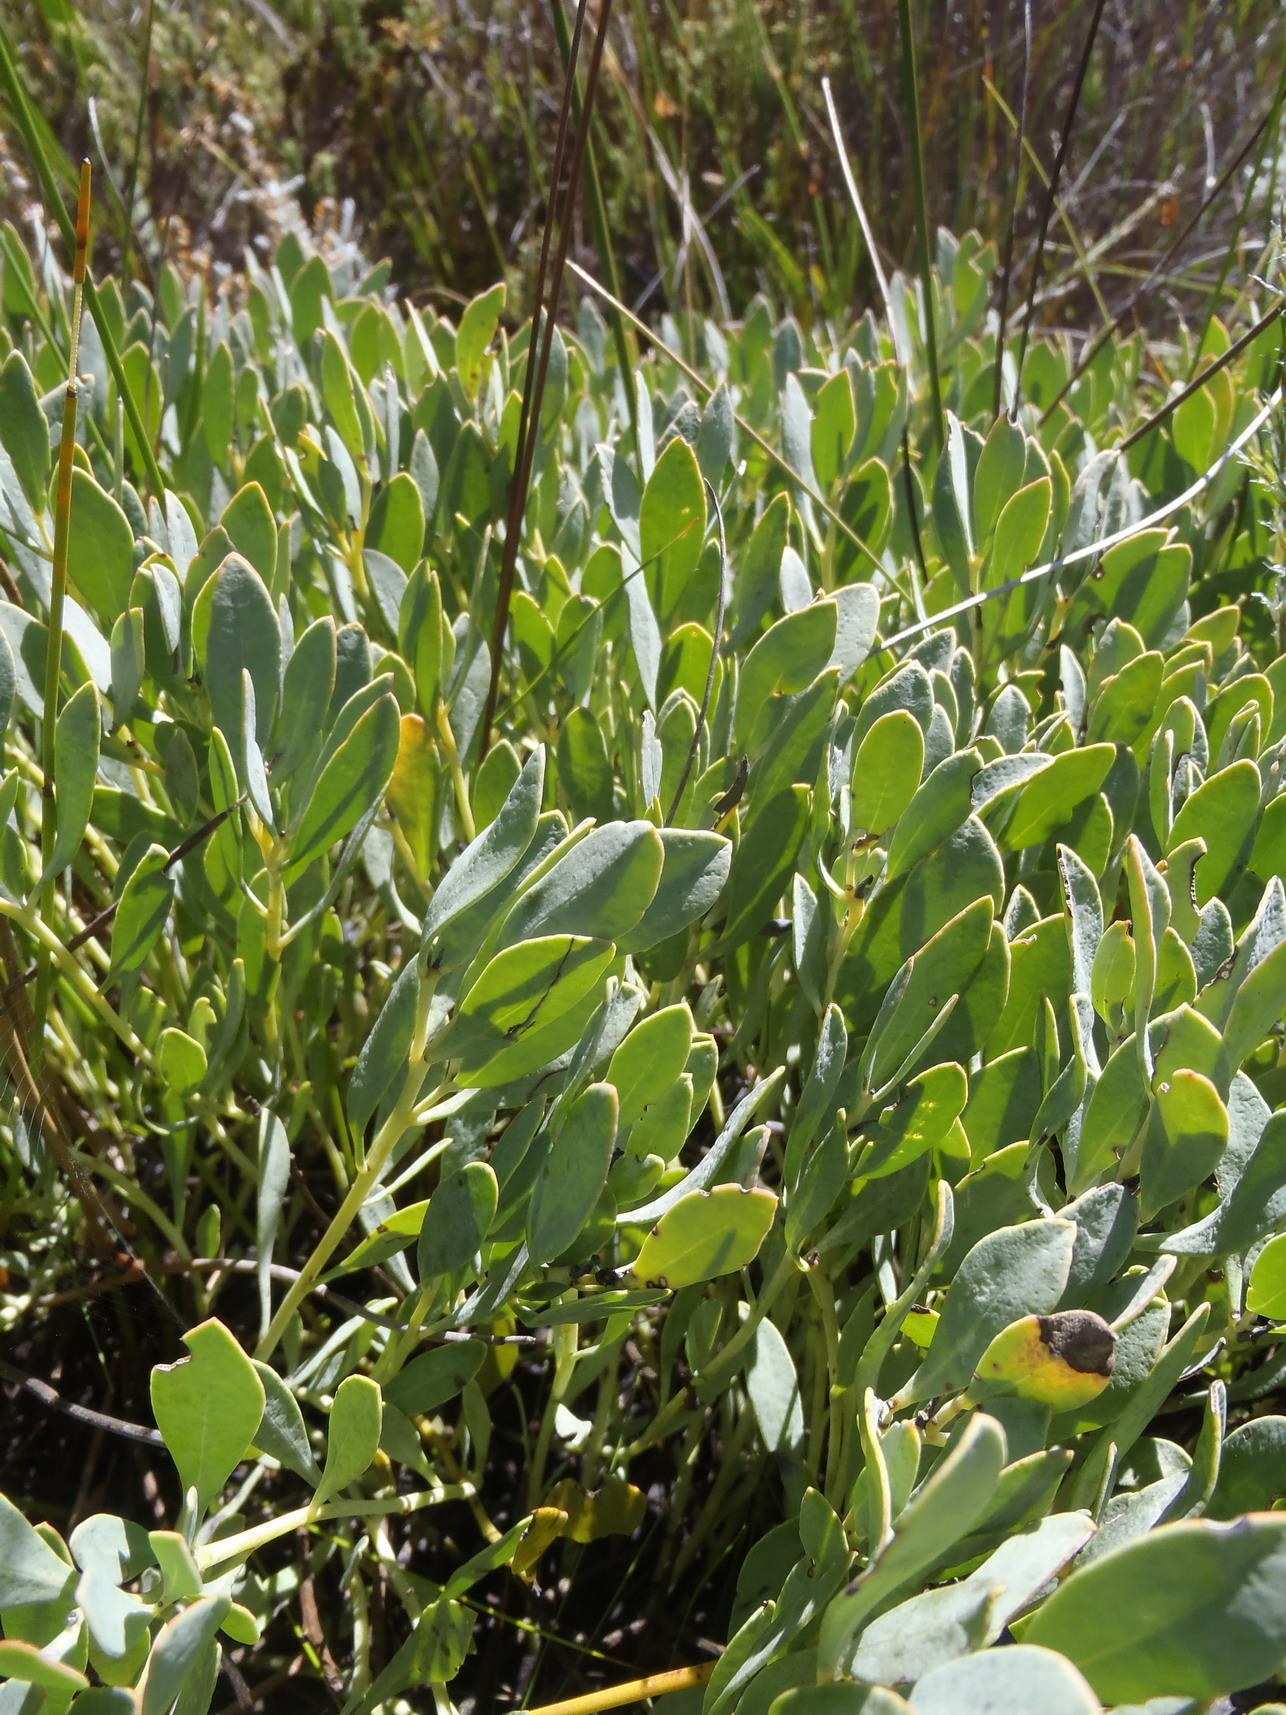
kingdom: Plantae
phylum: Tracheophyta
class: Magnoliopsida
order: Fabales
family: Fabaceae
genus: Rafnia
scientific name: Rafnia rostrata
